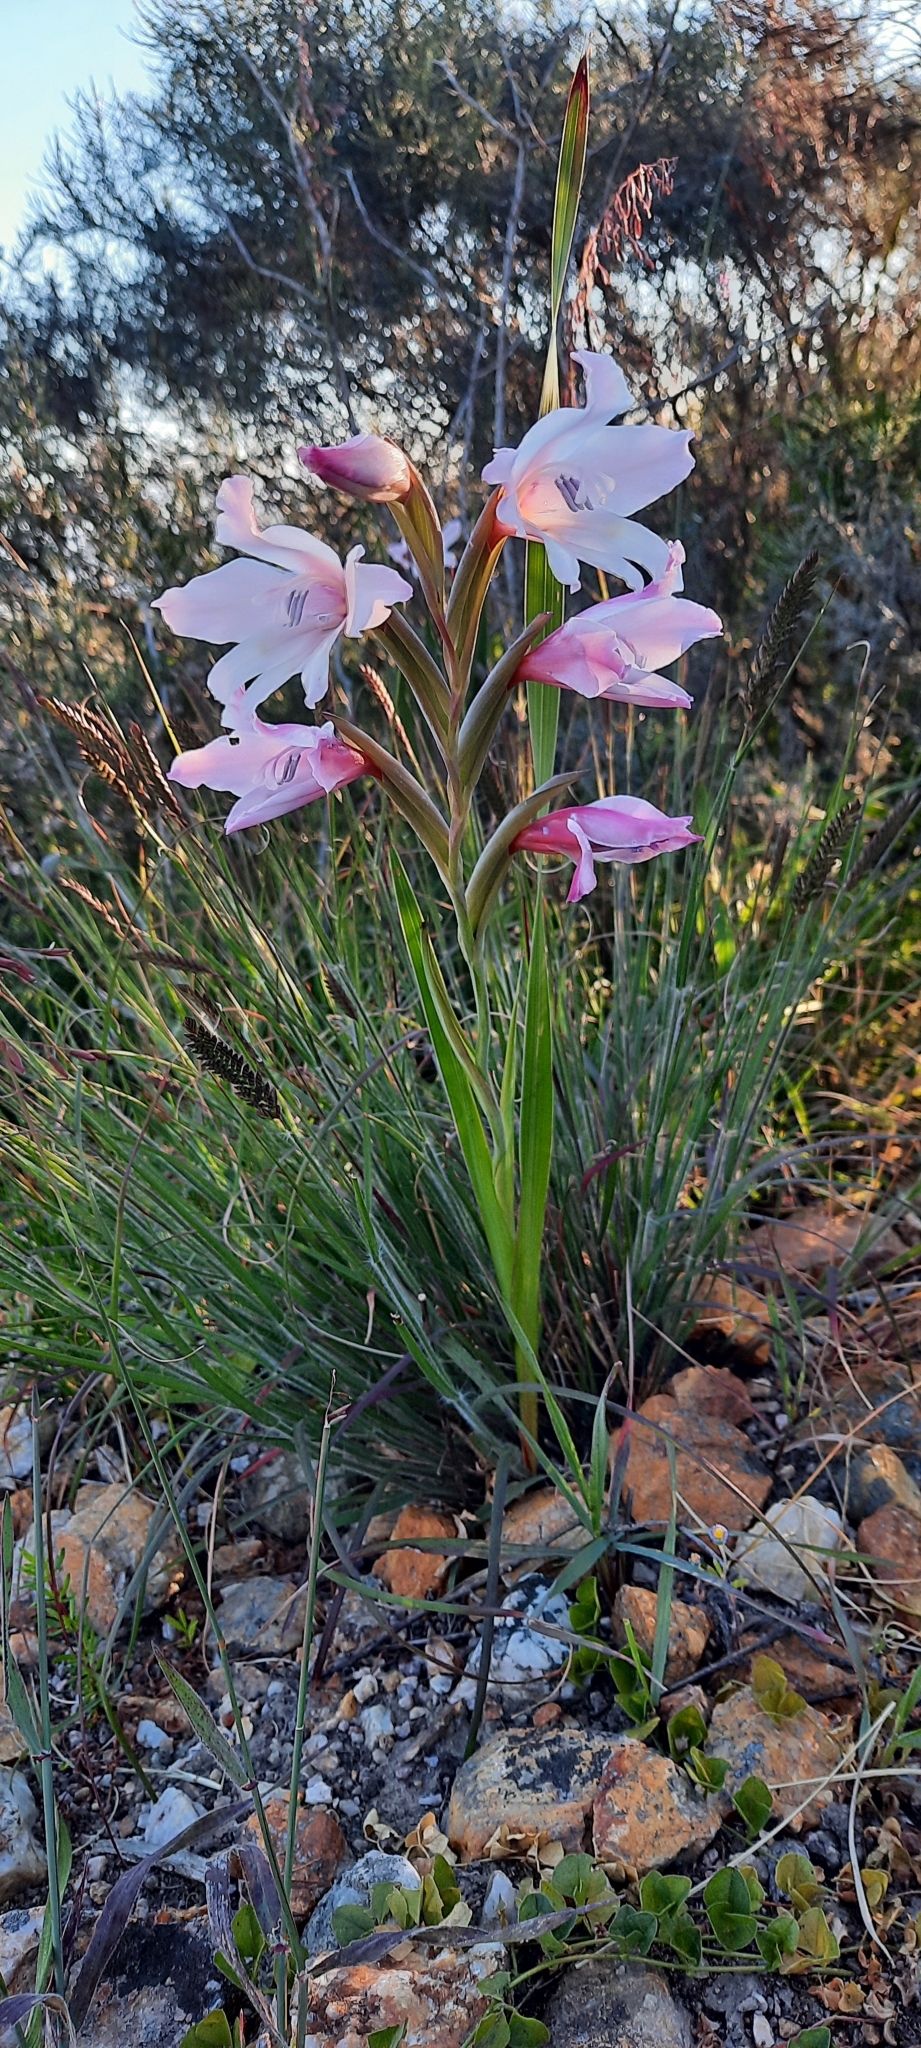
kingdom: Plantae
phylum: Tracheophyta
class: Liliopsida
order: Asparagales
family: Iridaceae
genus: Gladiolus
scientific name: Gladiolus carneus
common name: Painted-lady
